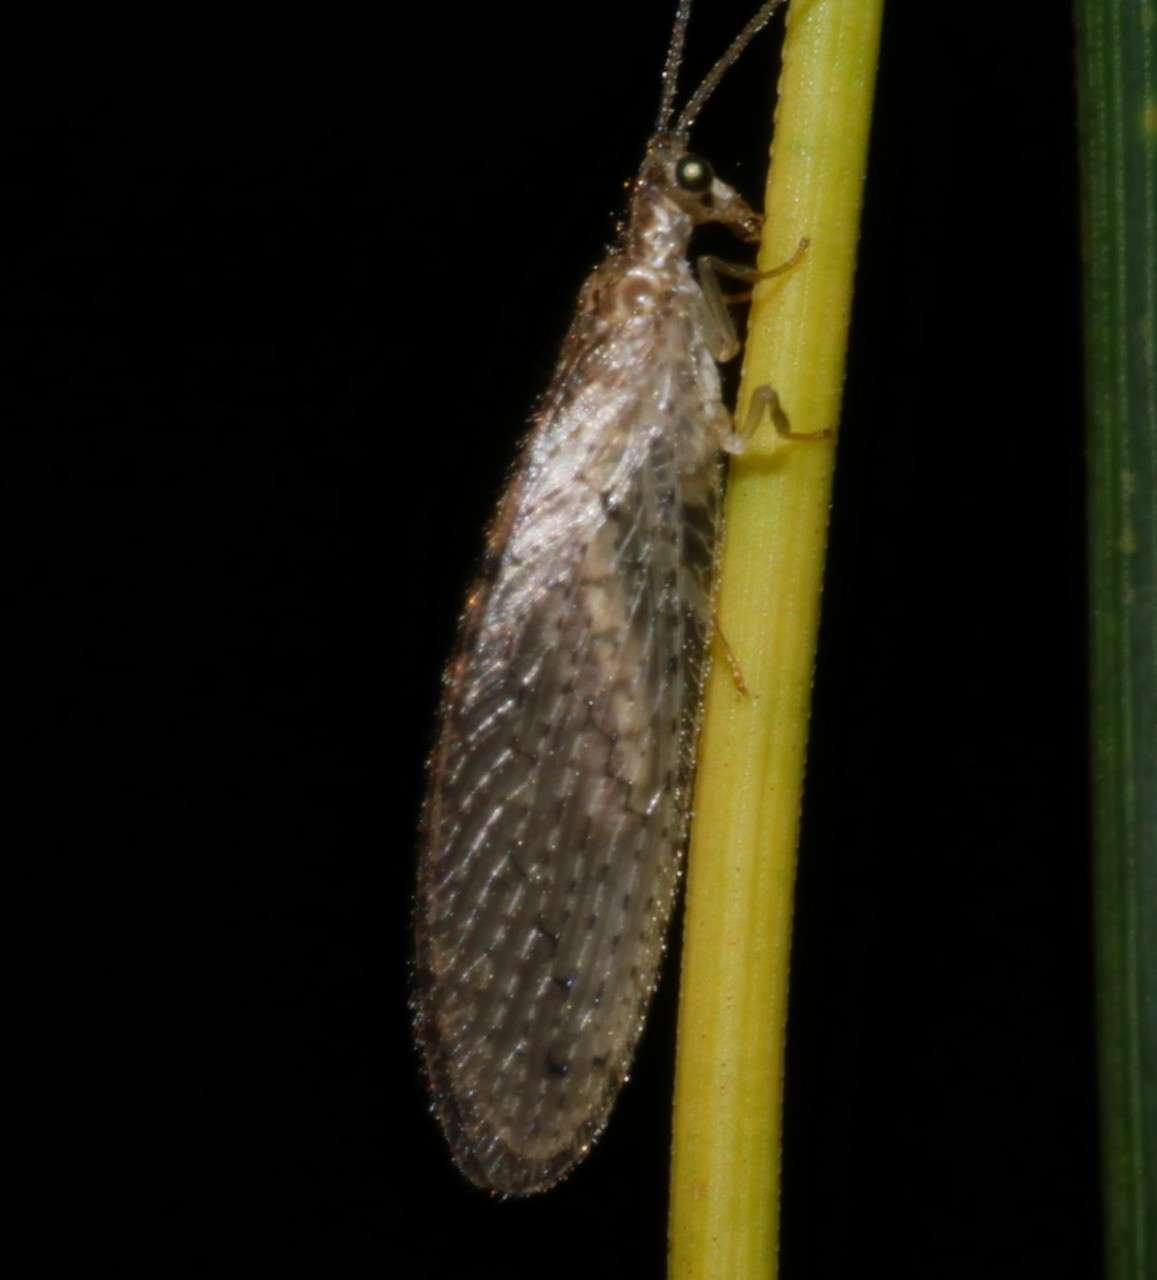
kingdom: Animalia
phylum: Arthropoda
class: Insecta
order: Neuroptera
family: Hemerobiidae
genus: Micromus
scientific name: Micromus tasmaniae
